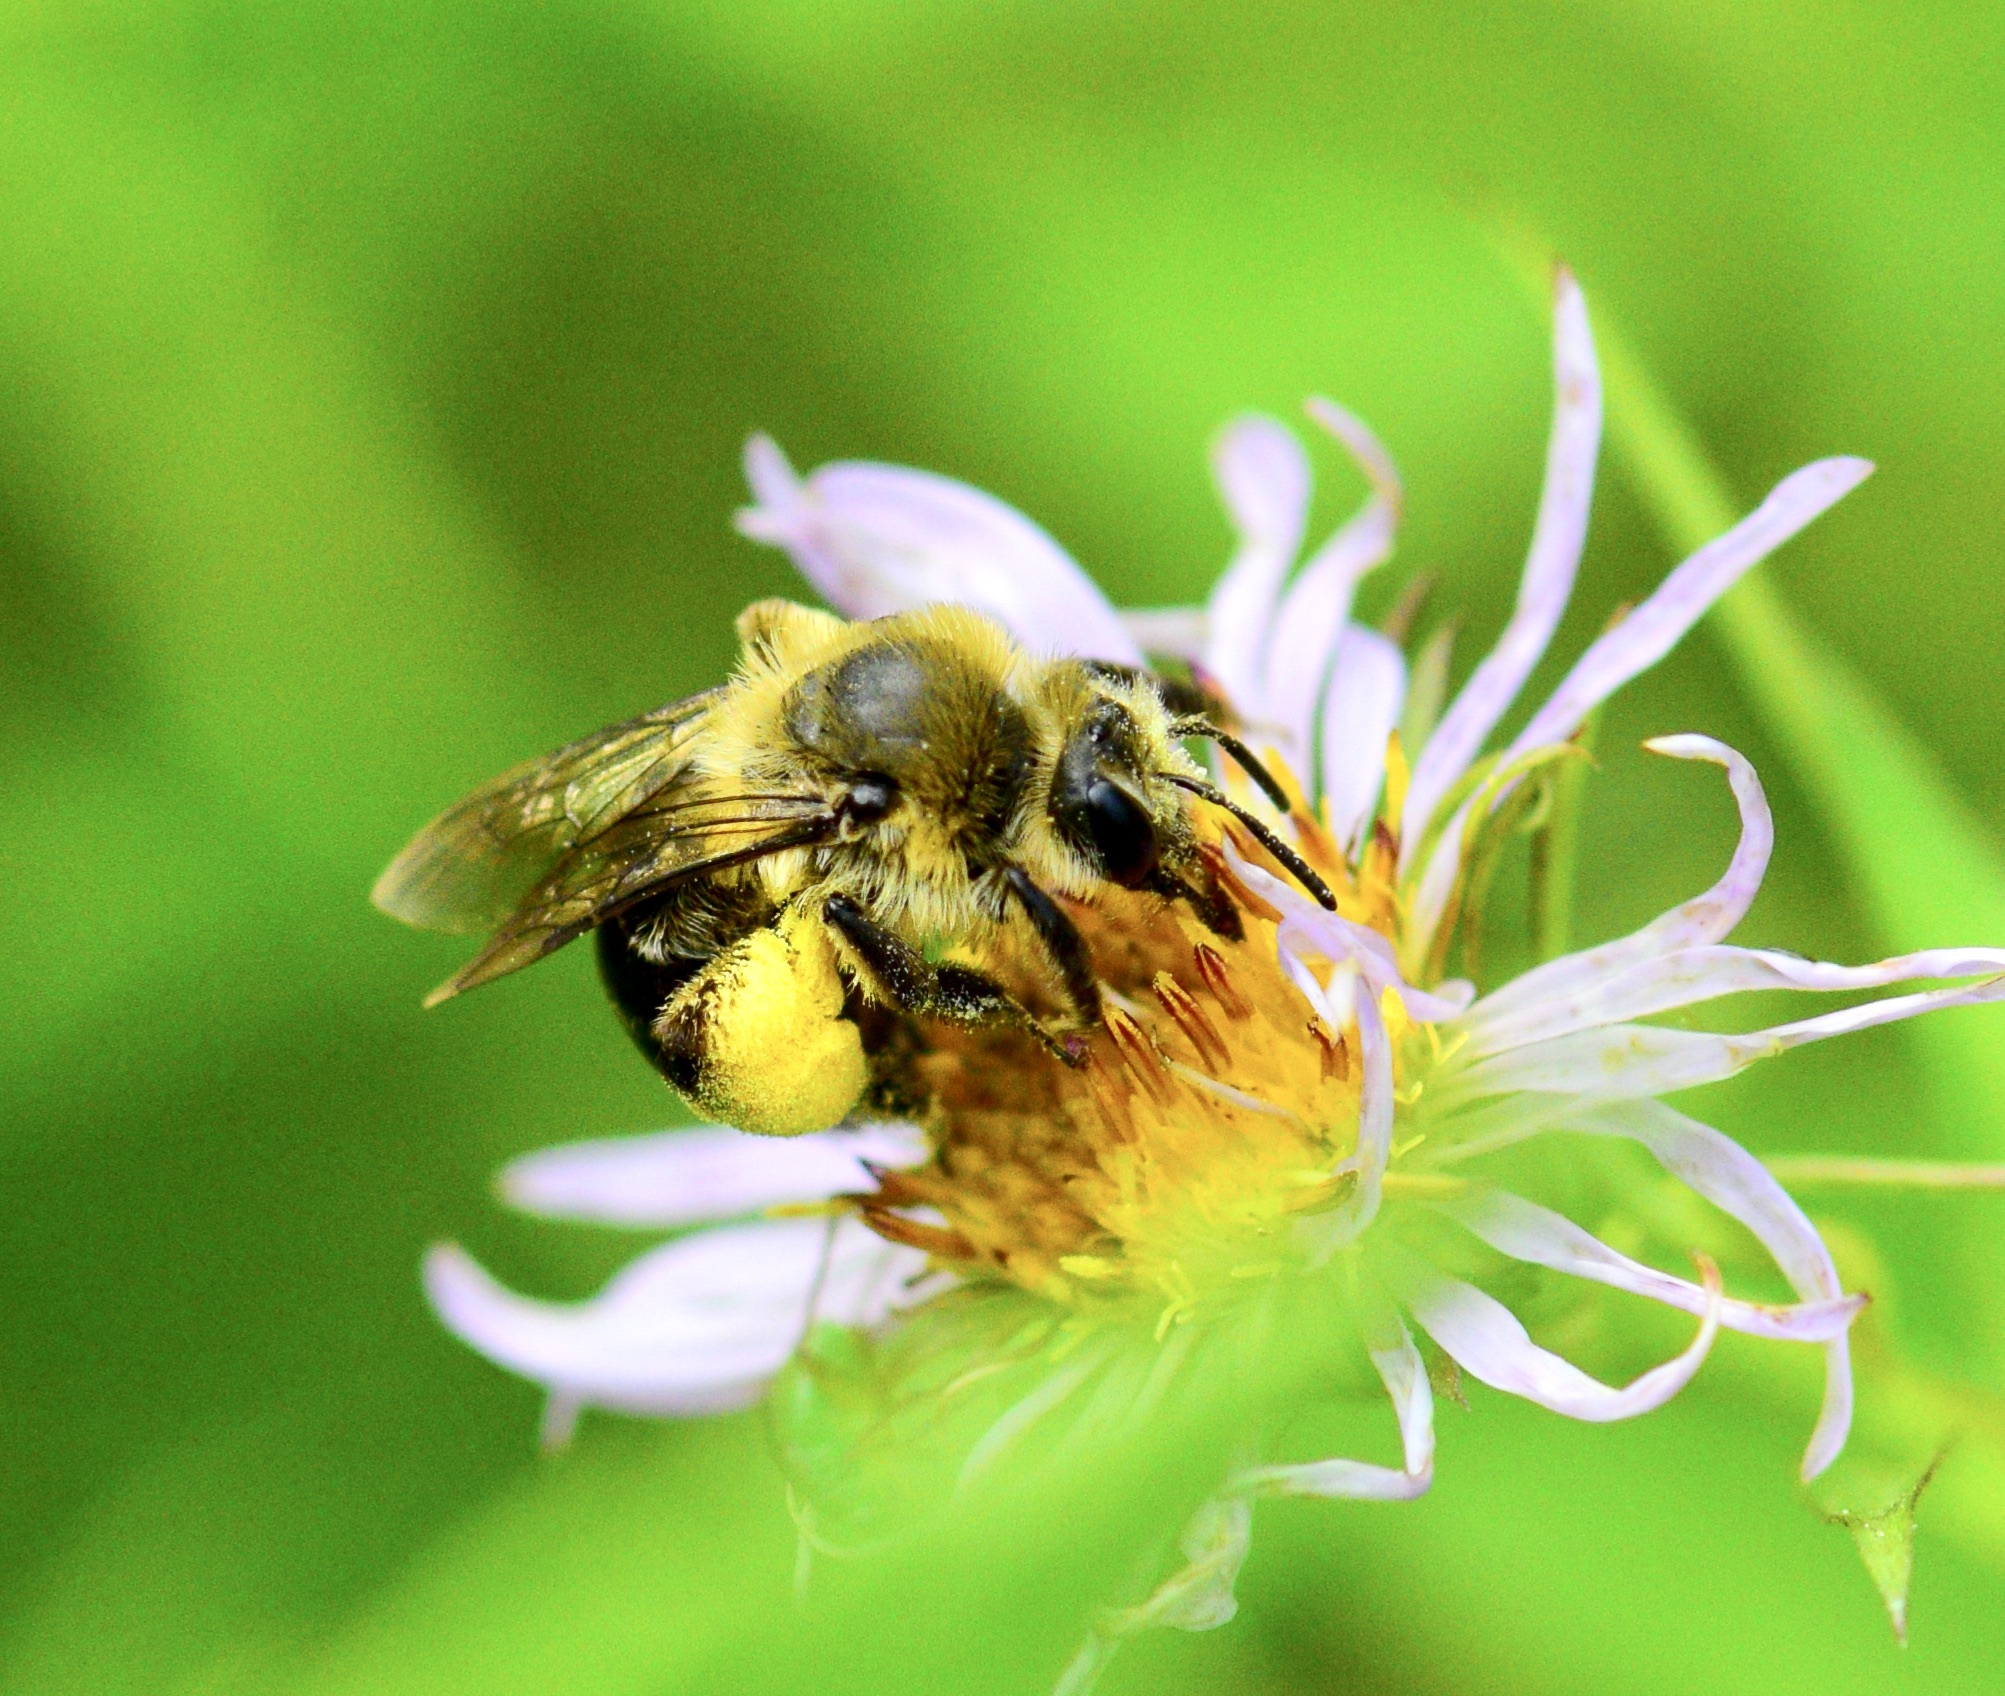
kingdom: Animalia
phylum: Arthropoda
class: Insecta
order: Hymenoptera
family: Andrenidae
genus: Andrena
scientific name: Andrena asteris
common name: Aster mining bee
